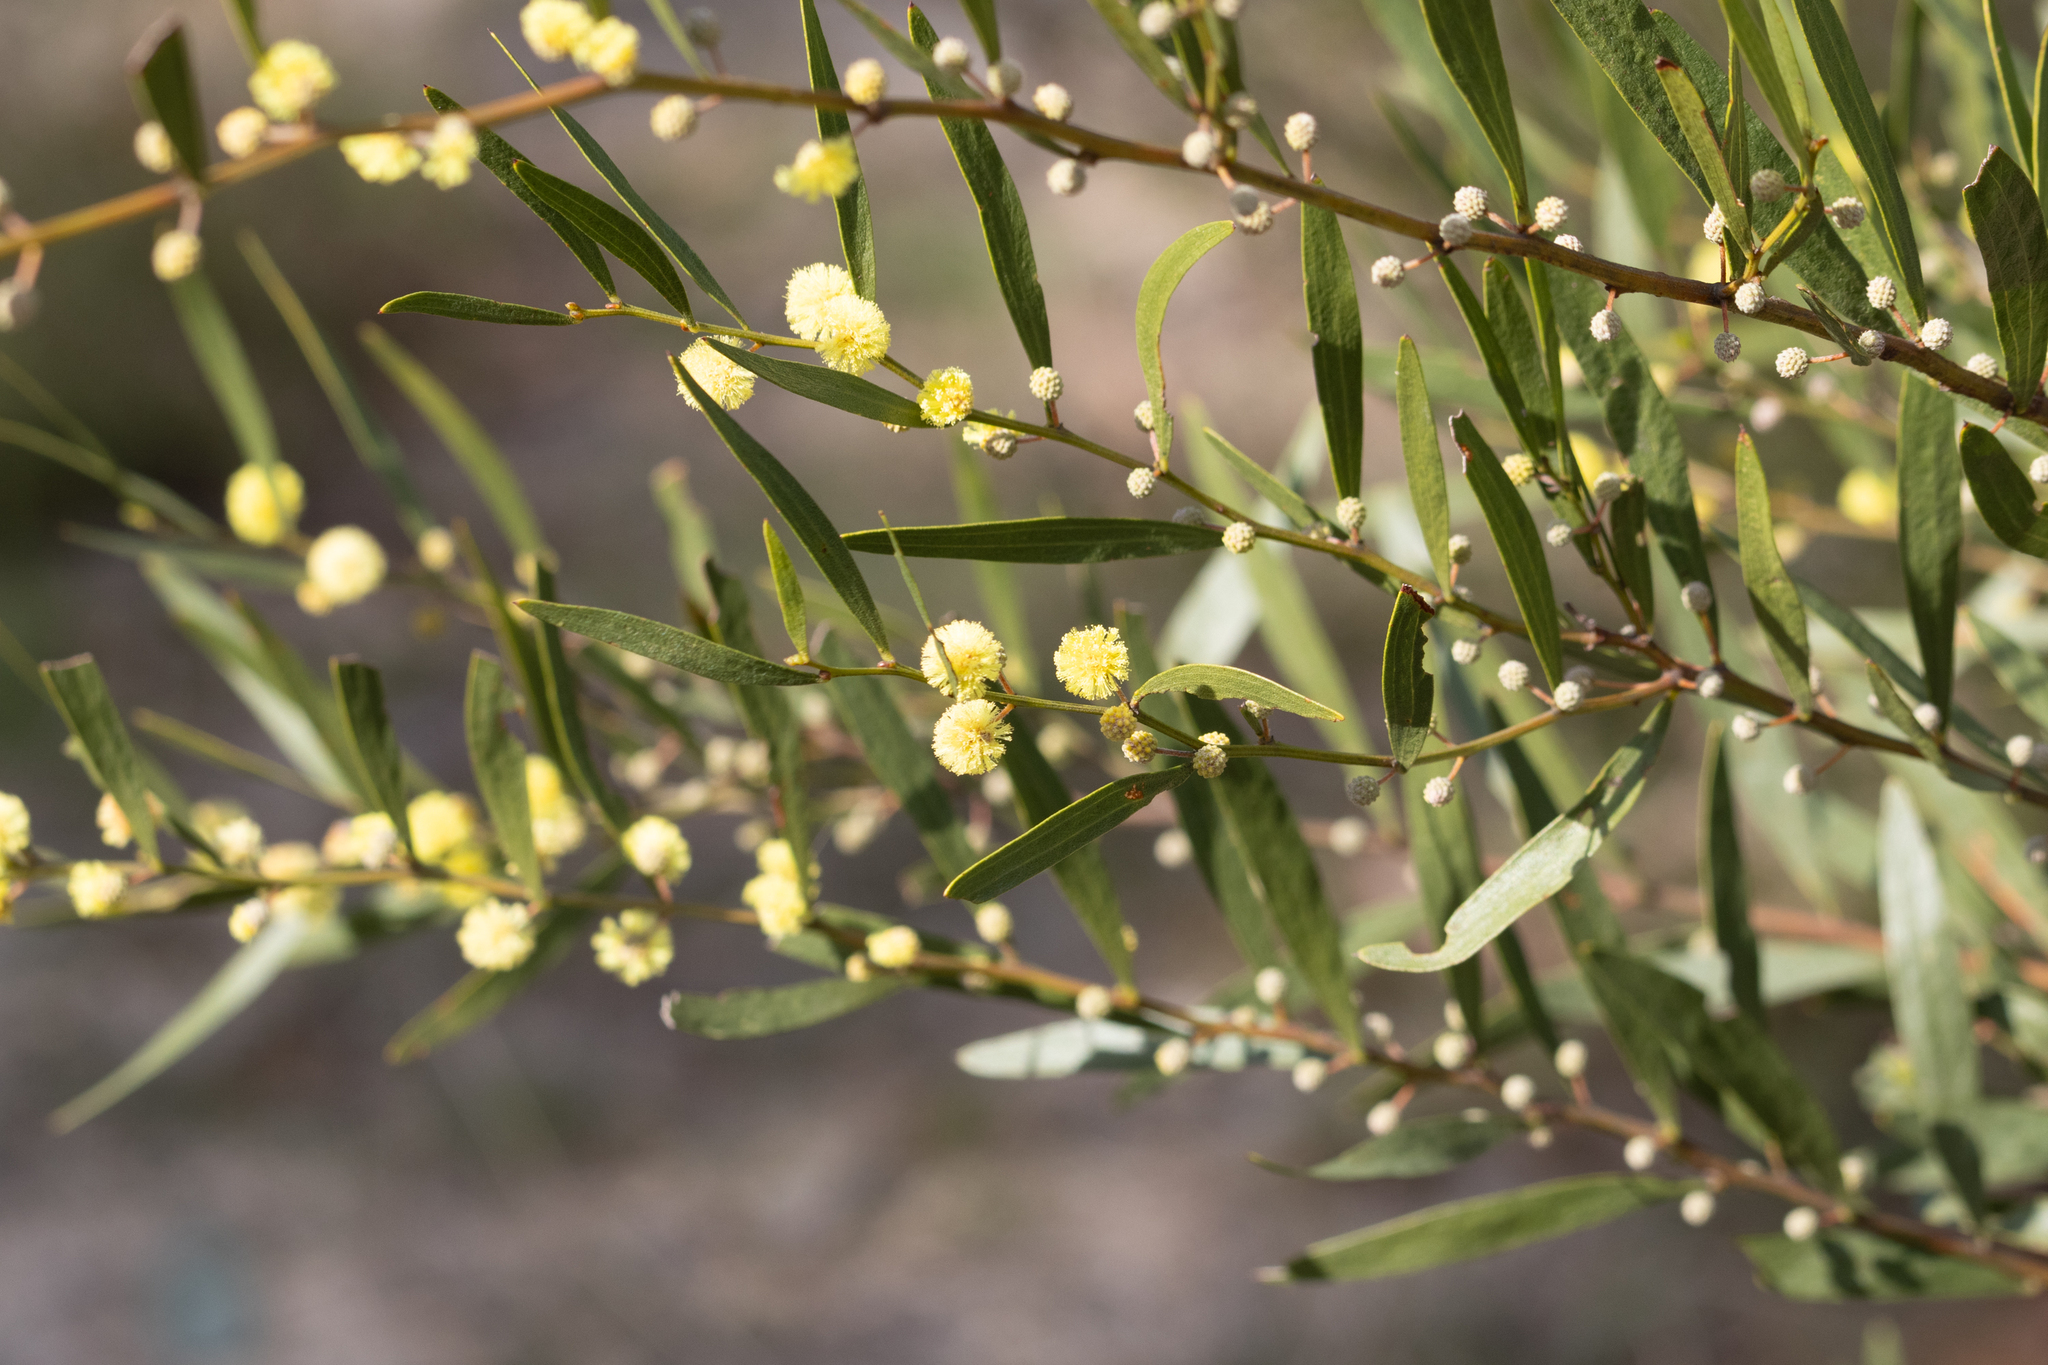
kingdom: Plantae
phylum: Tracheophyta
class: Magnoliopsida
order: Fabales
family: Fabaceae
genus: Acacia
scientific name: Acacia verniciflua
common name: Varnish wattle
